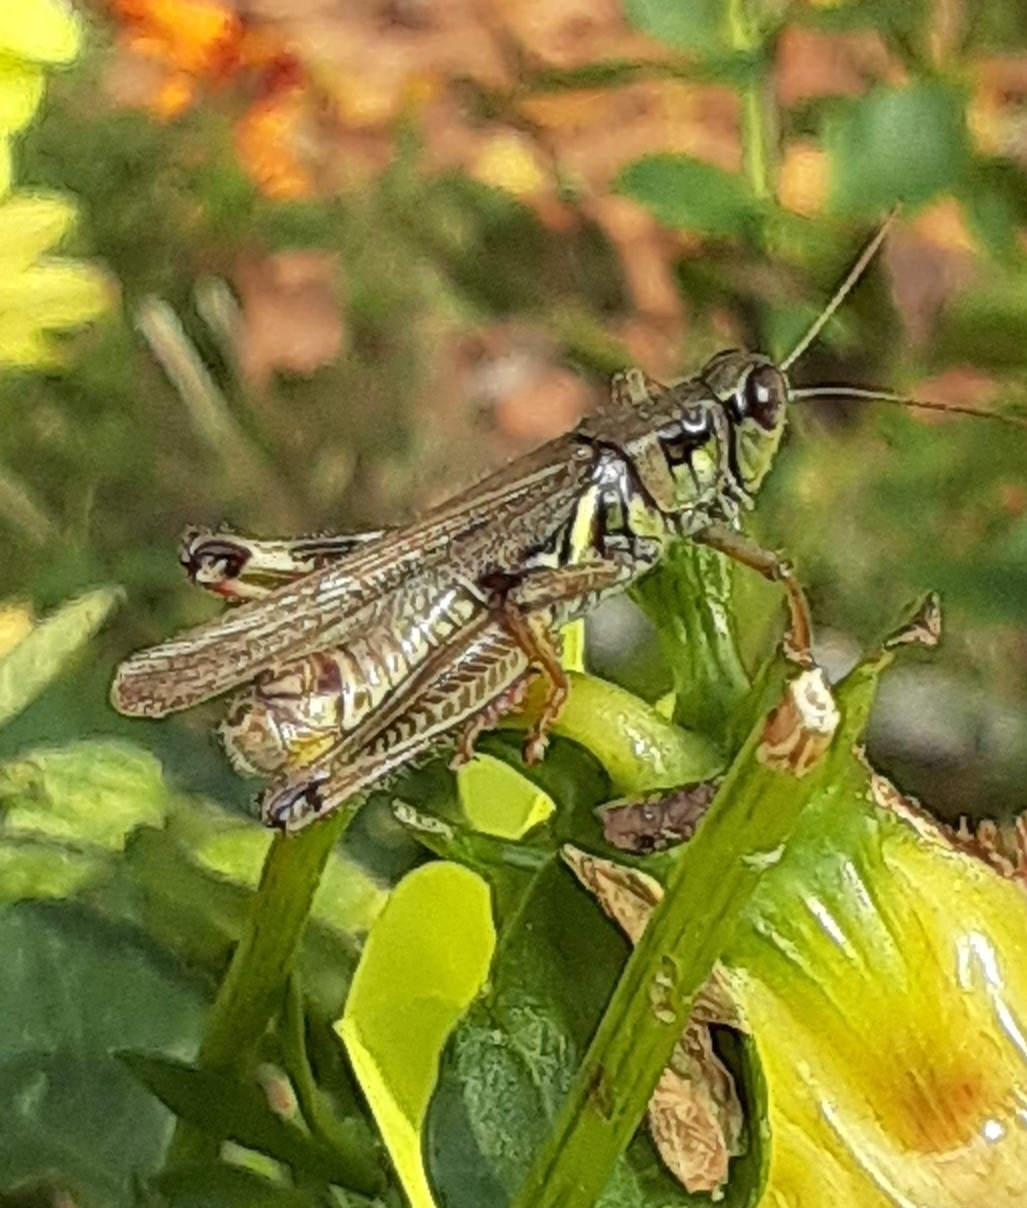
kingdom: Animalia
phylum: Arthropoda
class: Insecta
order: Orthoptera
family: Acrididae
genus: Melanoplus
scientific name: Melanoplus femurrubrum
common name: Red-legged grasshopper
